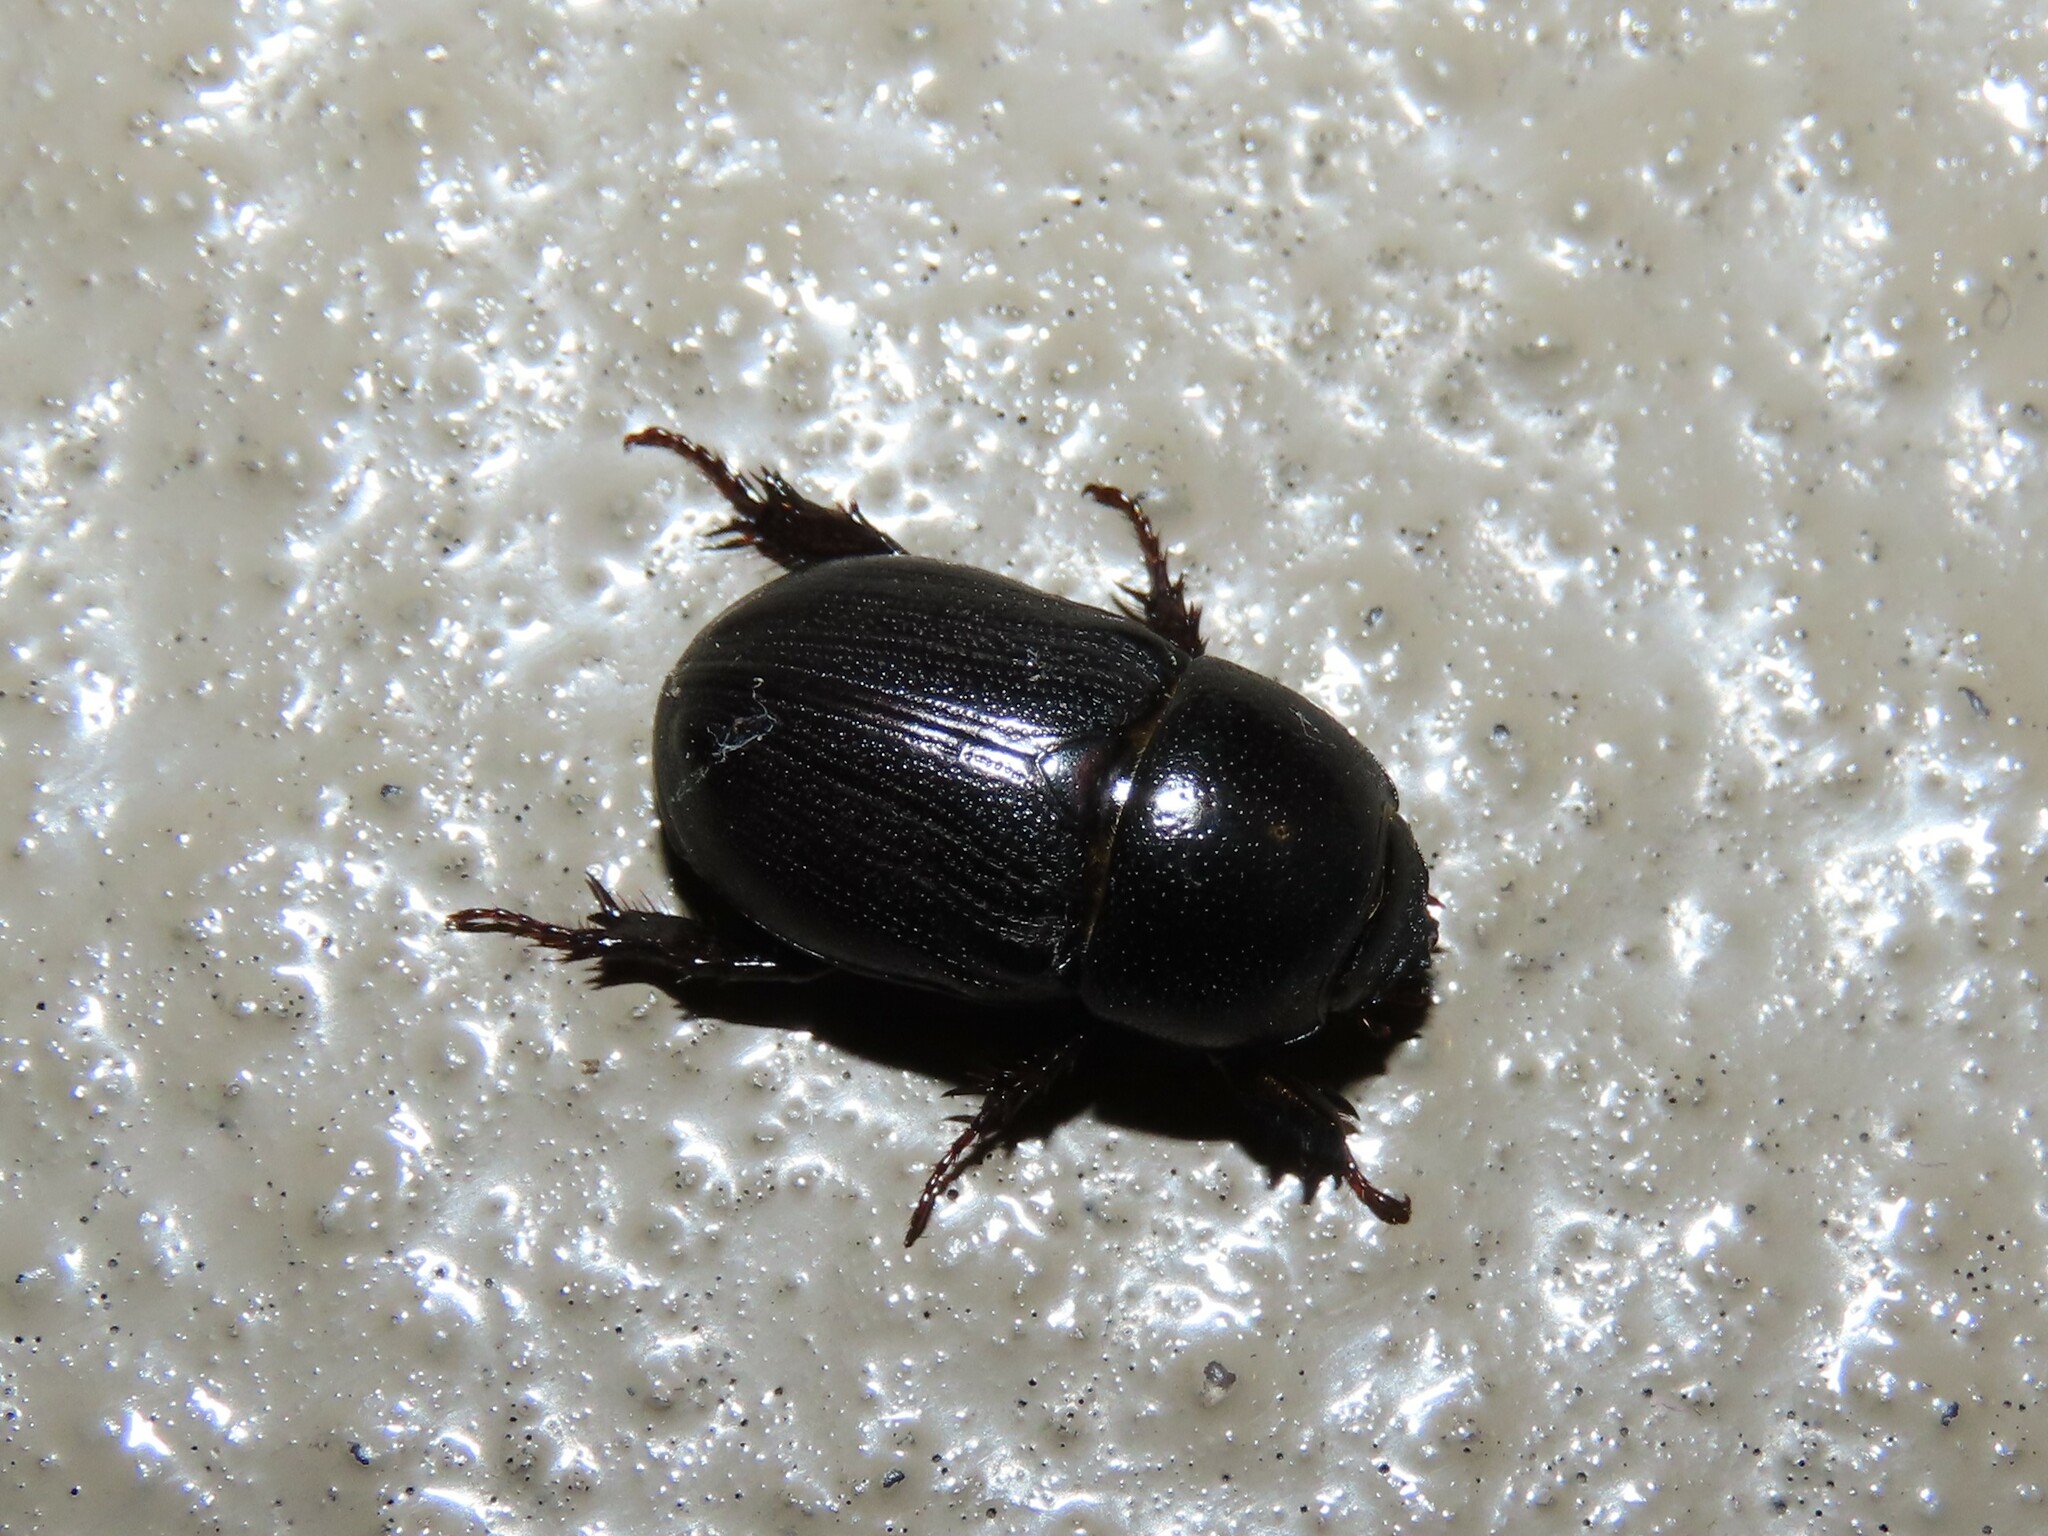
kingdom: Animalia
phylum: Arthropoda
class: Insecta
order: Coleoptera
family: Scarabaeidae
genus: Euetheola
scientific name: Euetheola rugiceps
